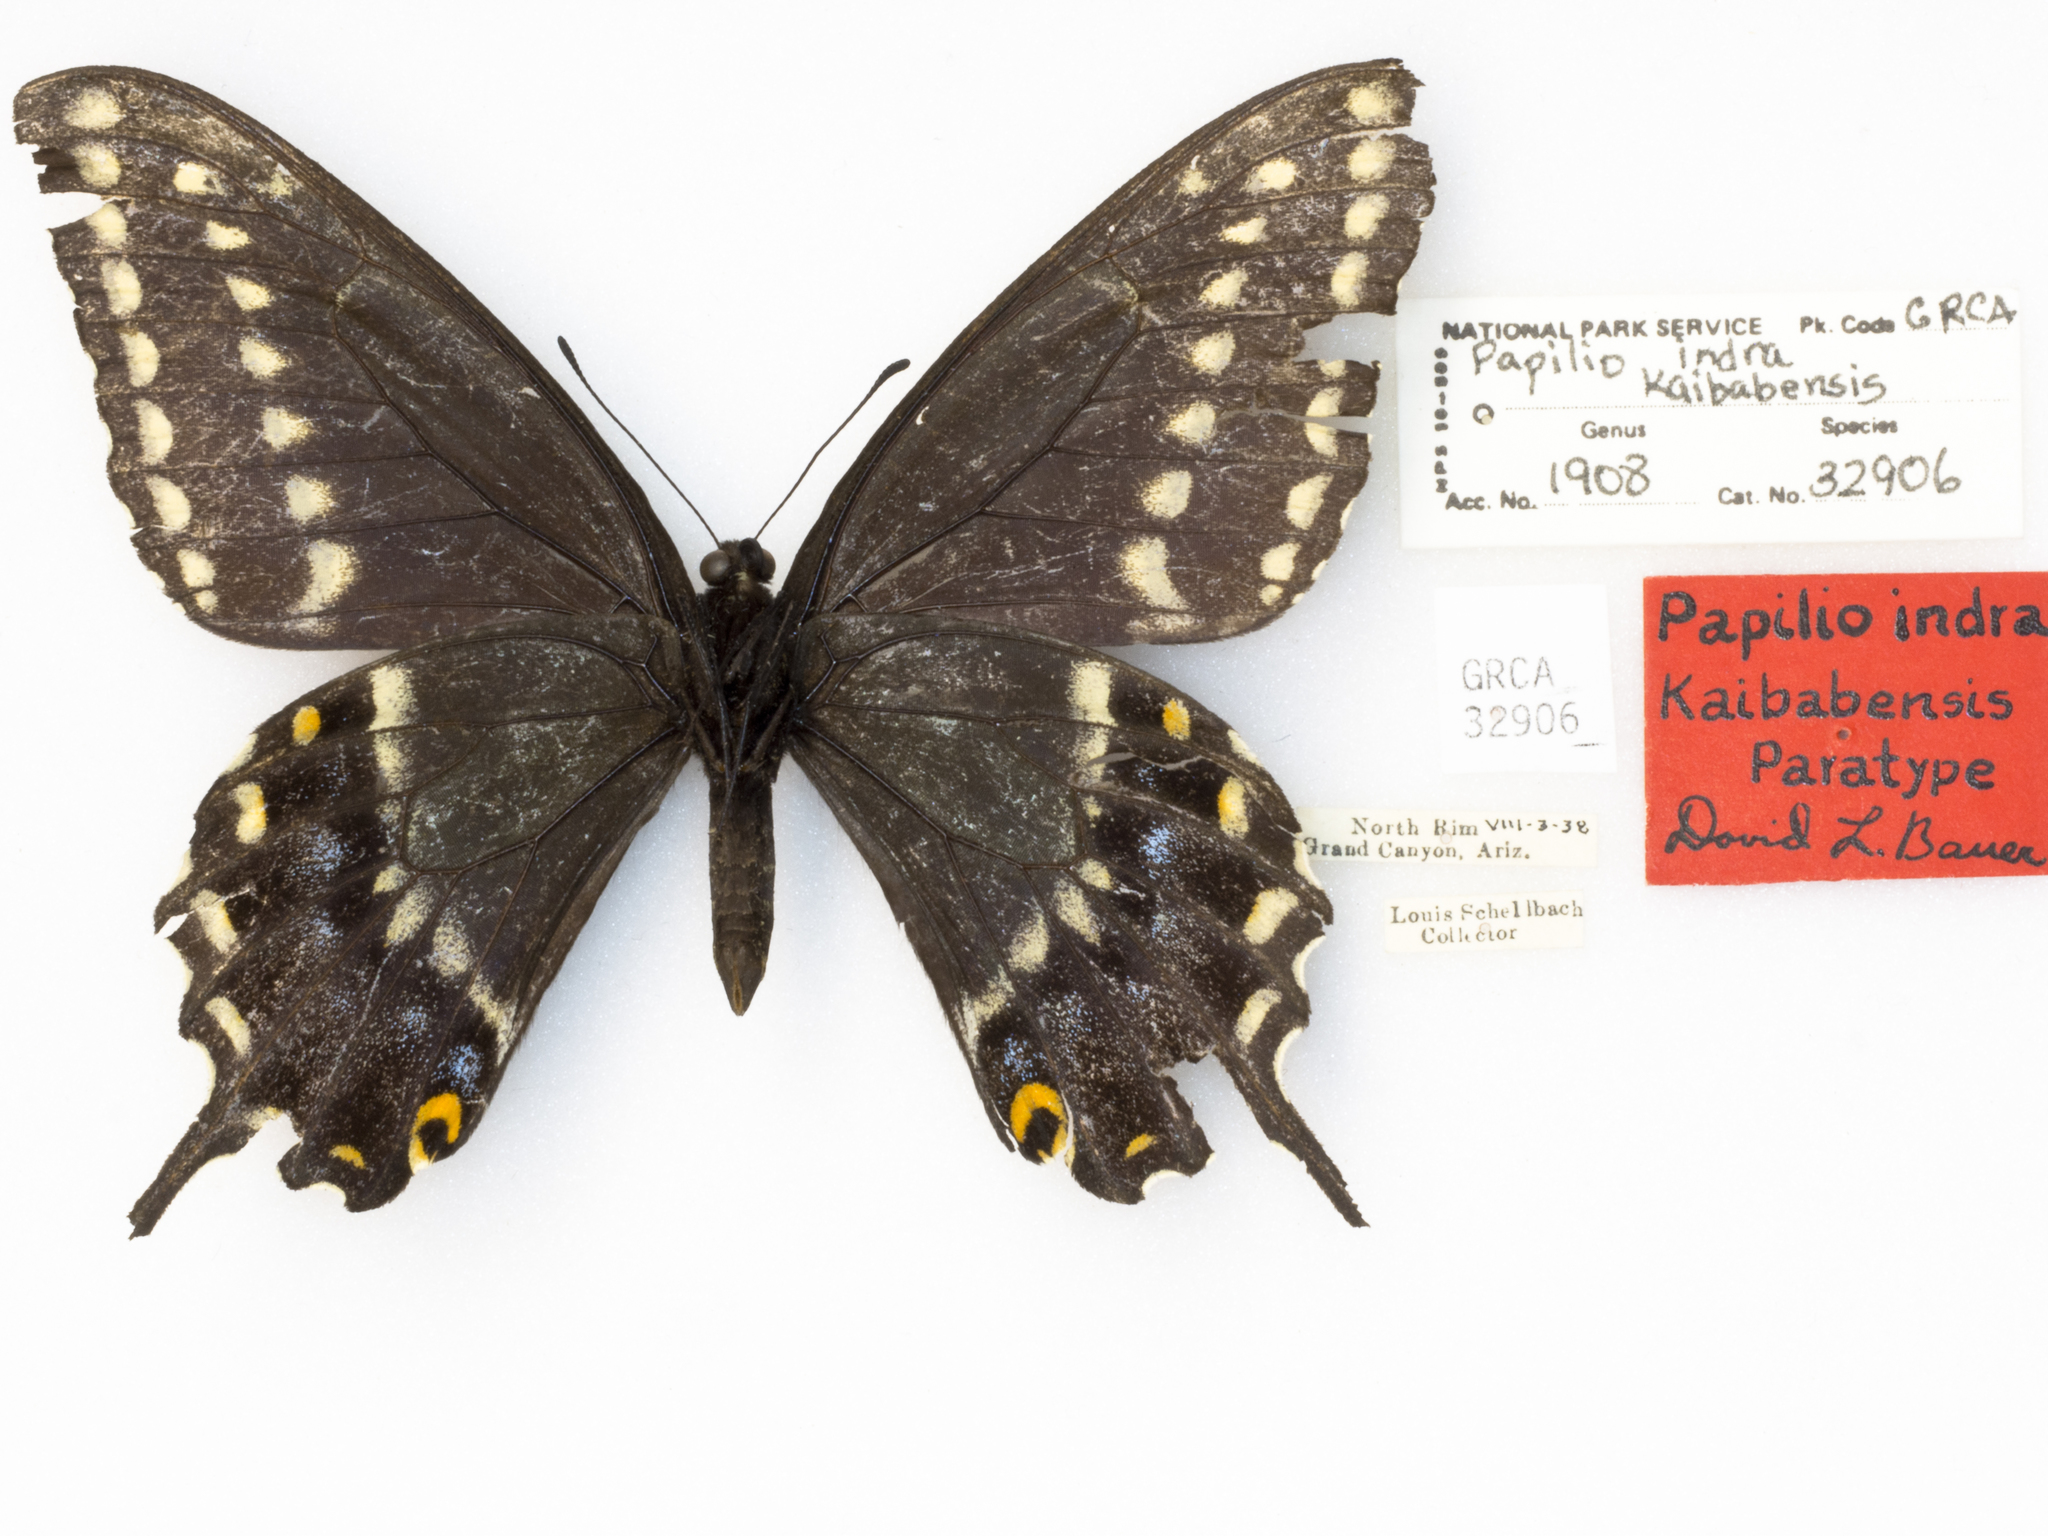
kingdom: Animalia
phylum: Arthropoda
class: Insecta
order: Lepidoptera
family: Papilionidae
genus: Papilio
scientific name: Papilio indra
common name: Cliff swallowtail
